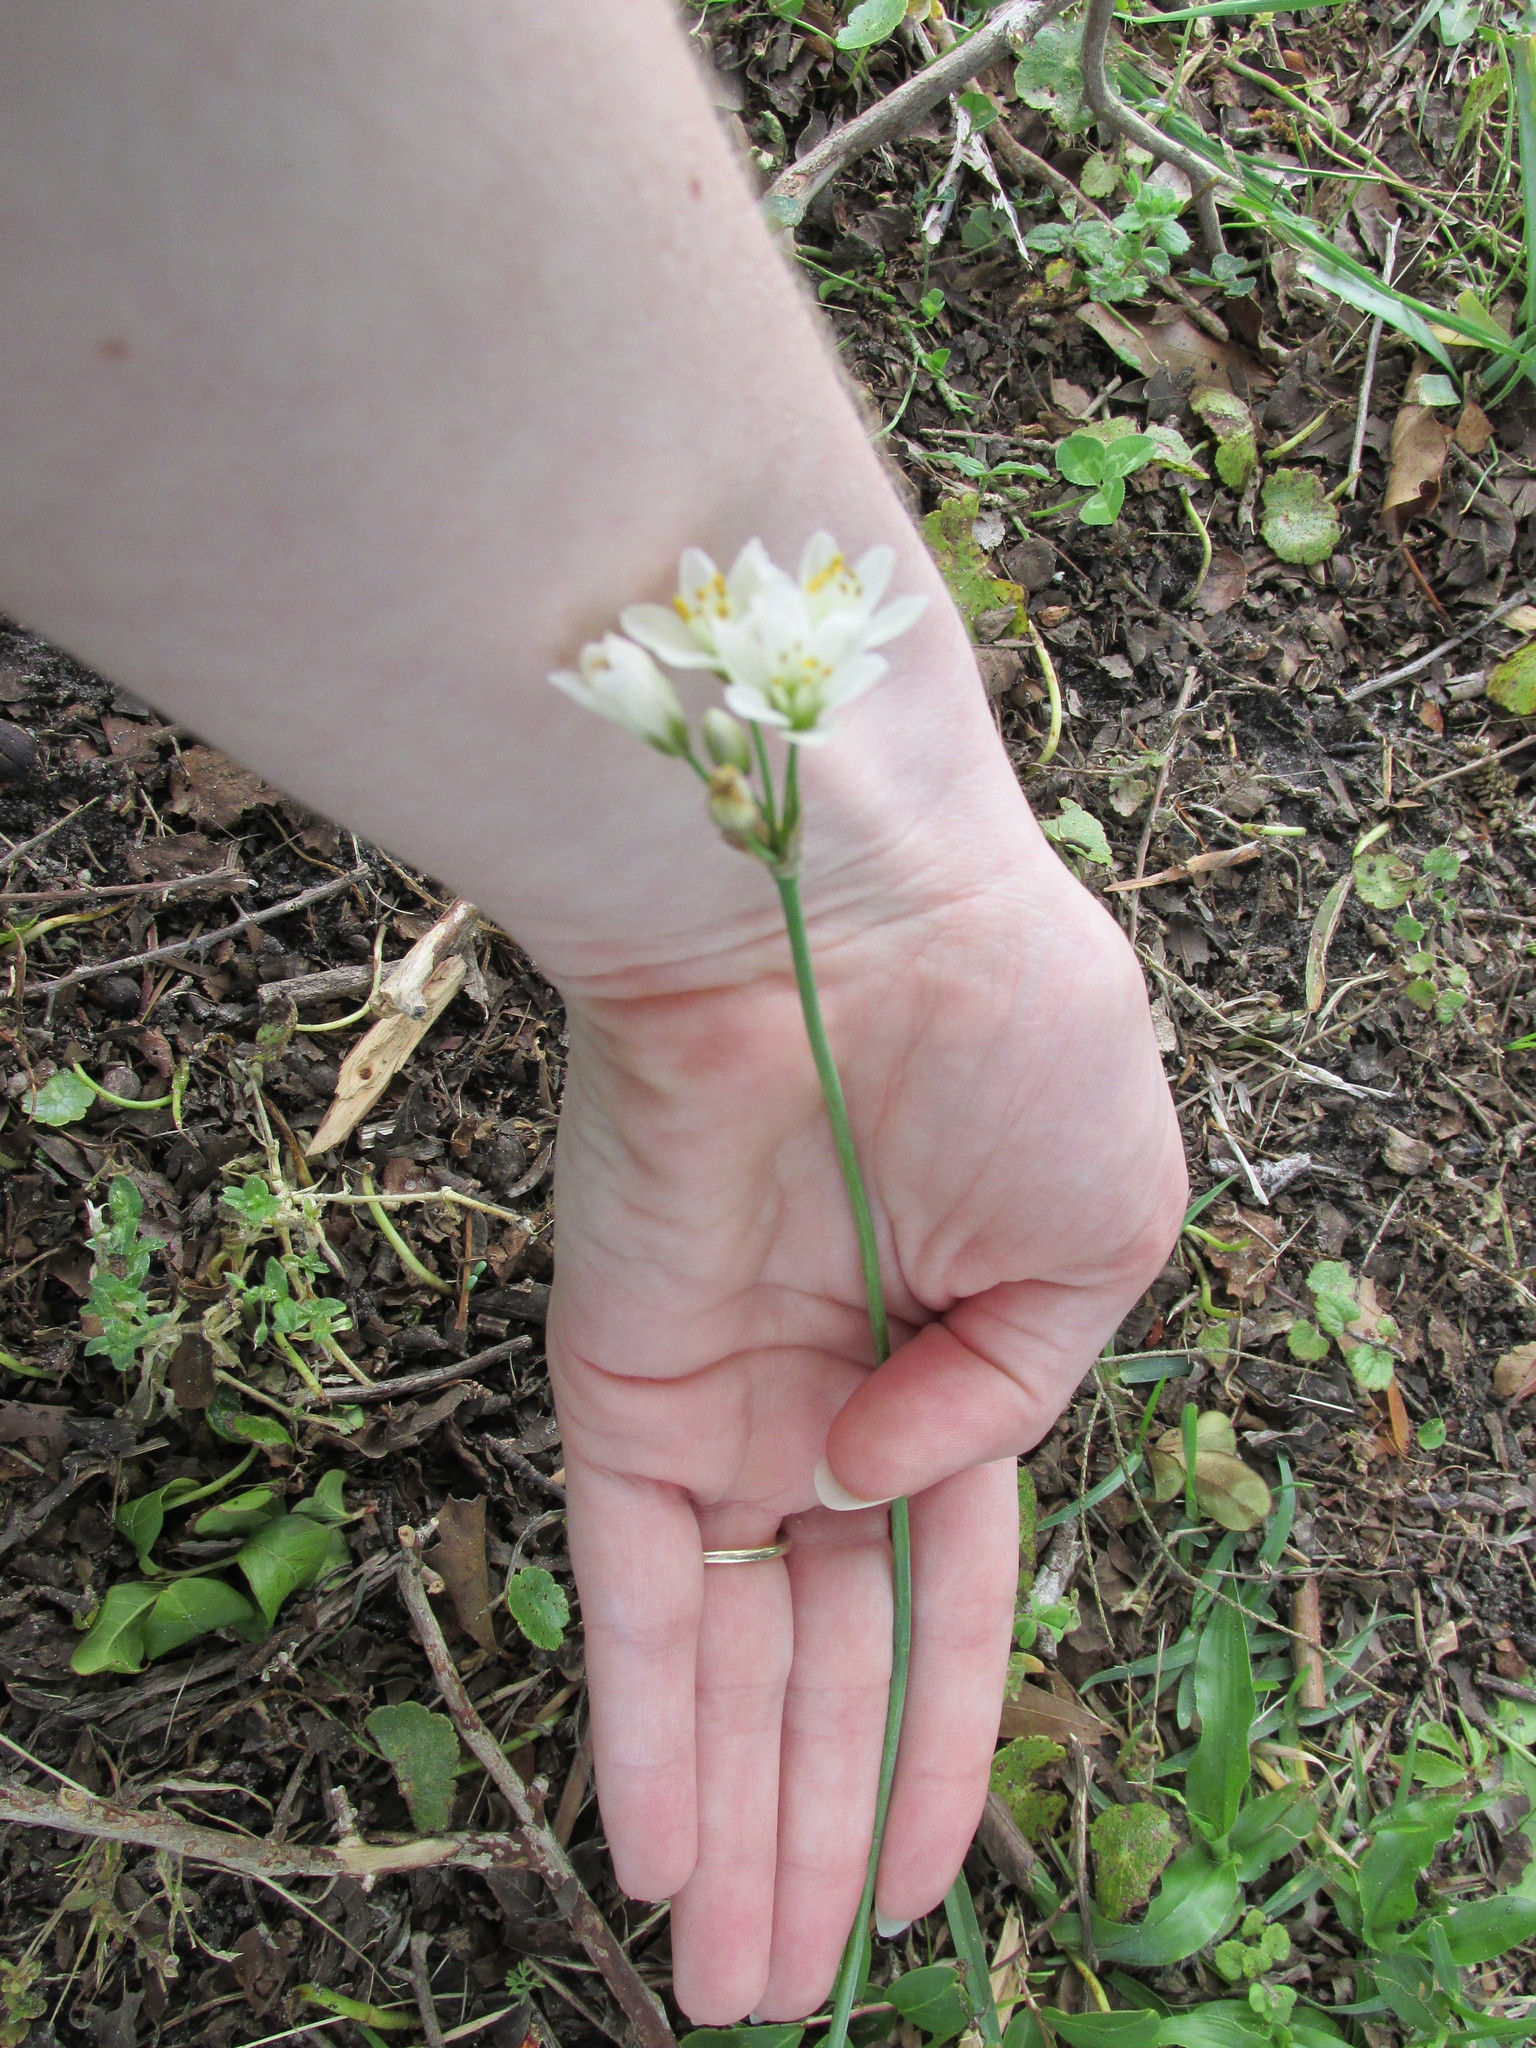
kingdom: Plantae
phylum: Tracheophyta
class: Liliopsida
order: Asparagales
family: Amaryllidaceae
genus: Nothoscordum
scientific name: Nothoscordum bivalve
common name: Crow-poison
